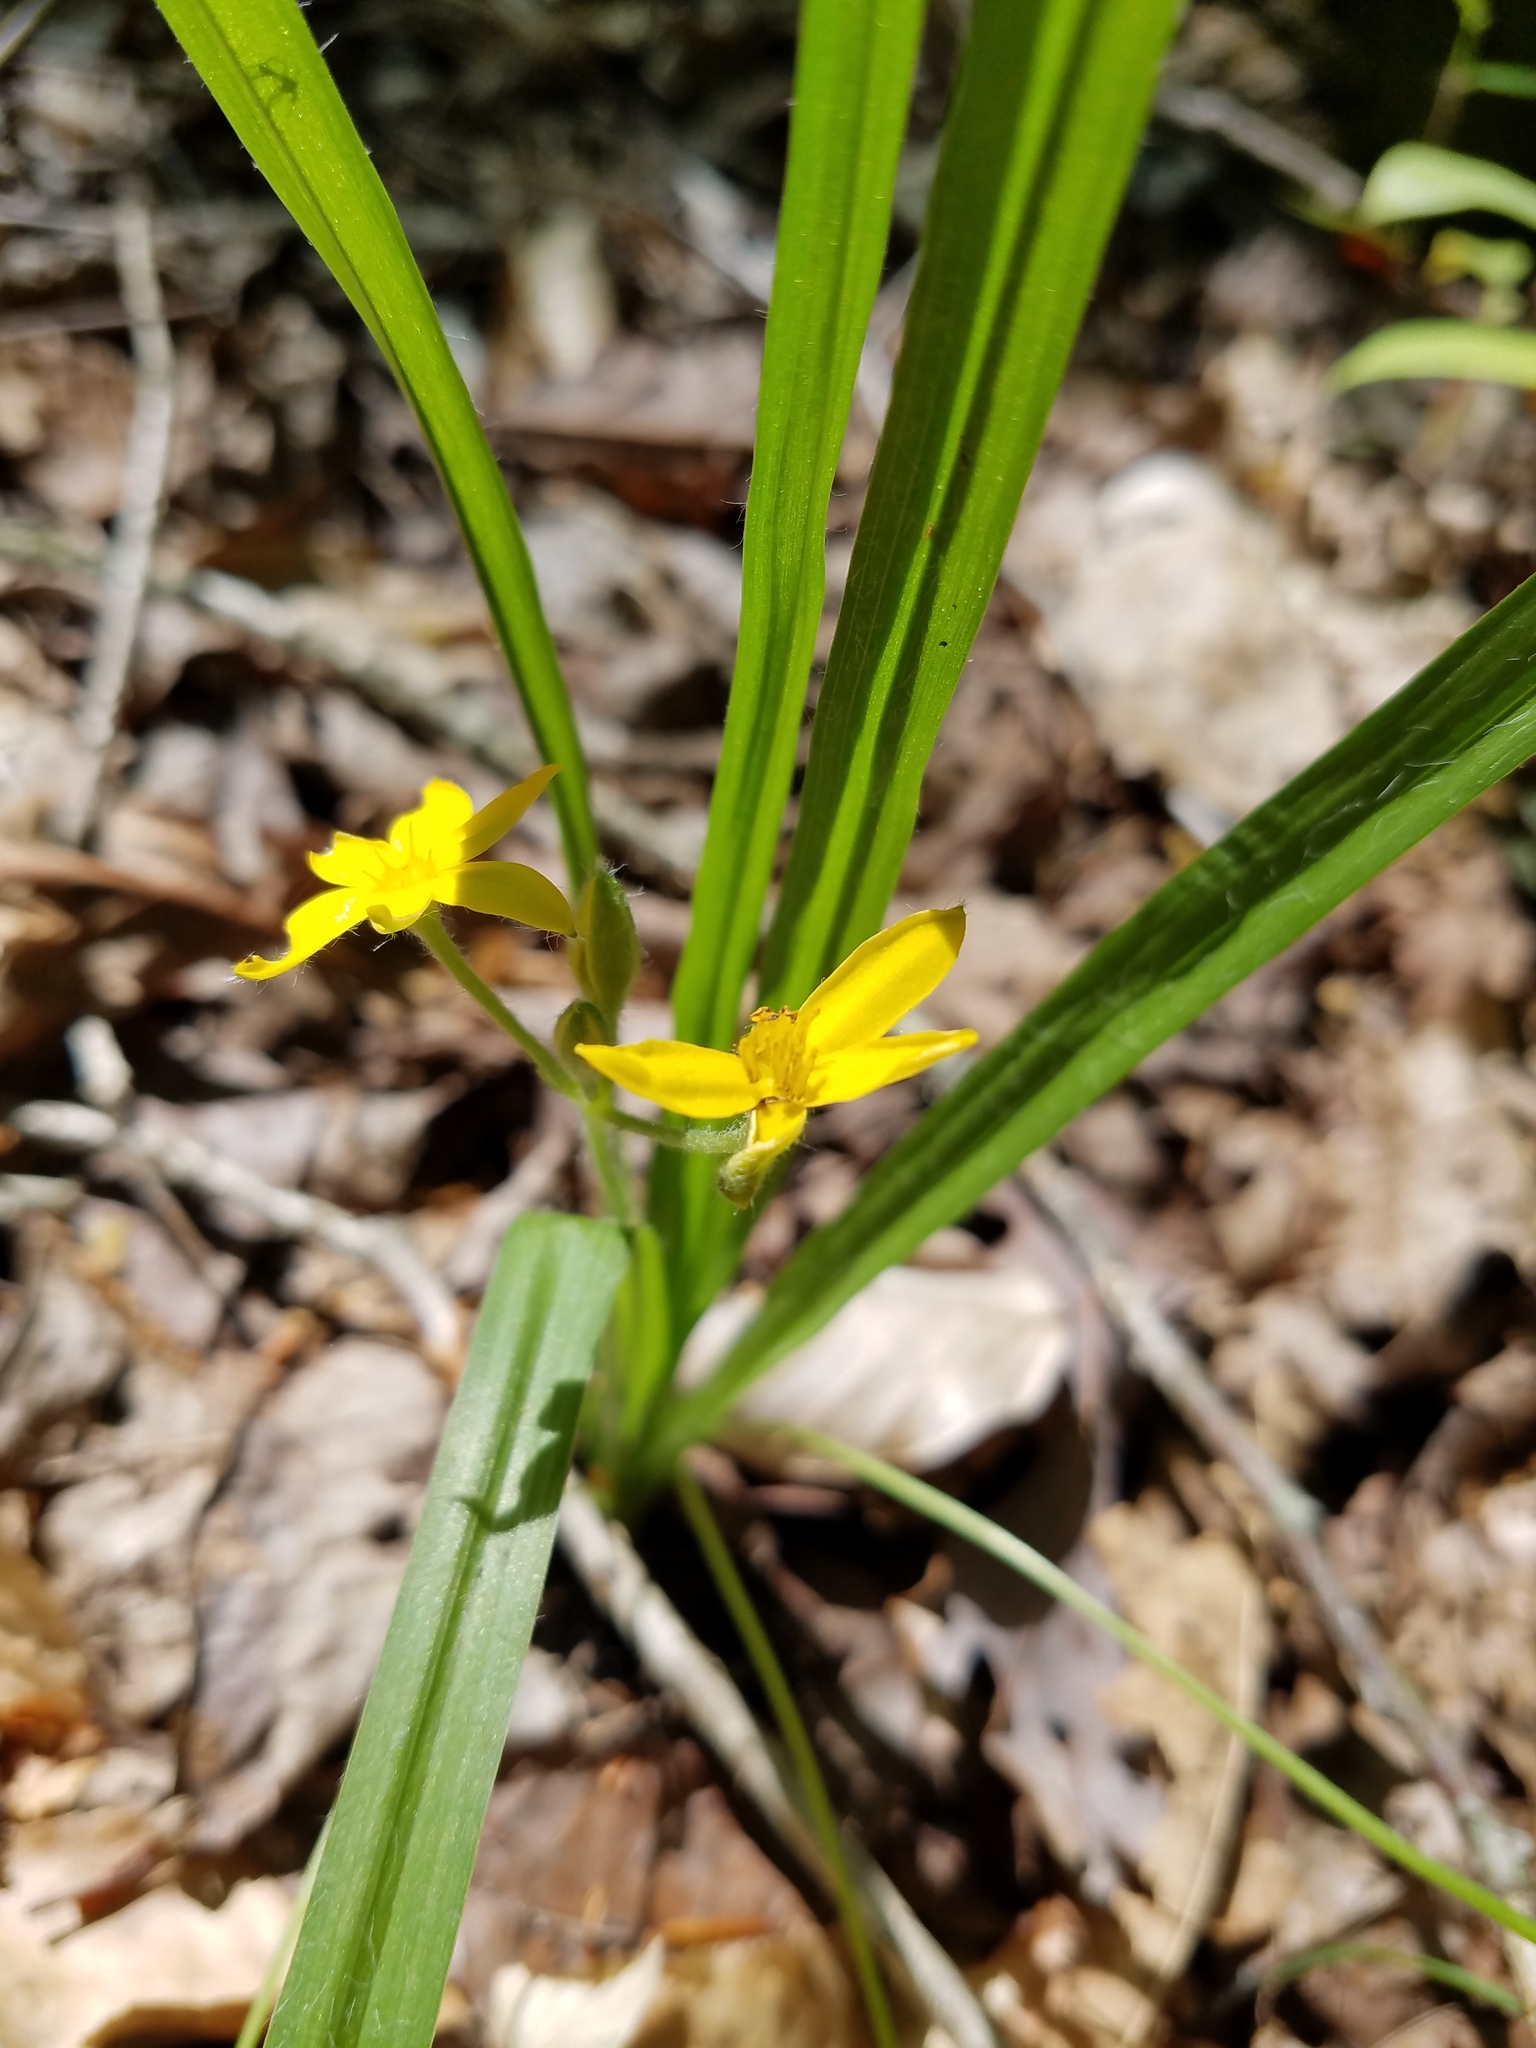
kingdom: Plantae
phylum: Tracheophyta
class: Liliopsida
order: Asparagales
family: Hypoxidaceae
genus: Hypoxis
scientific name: Hypoxis hirsuta
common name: Common goldstar
